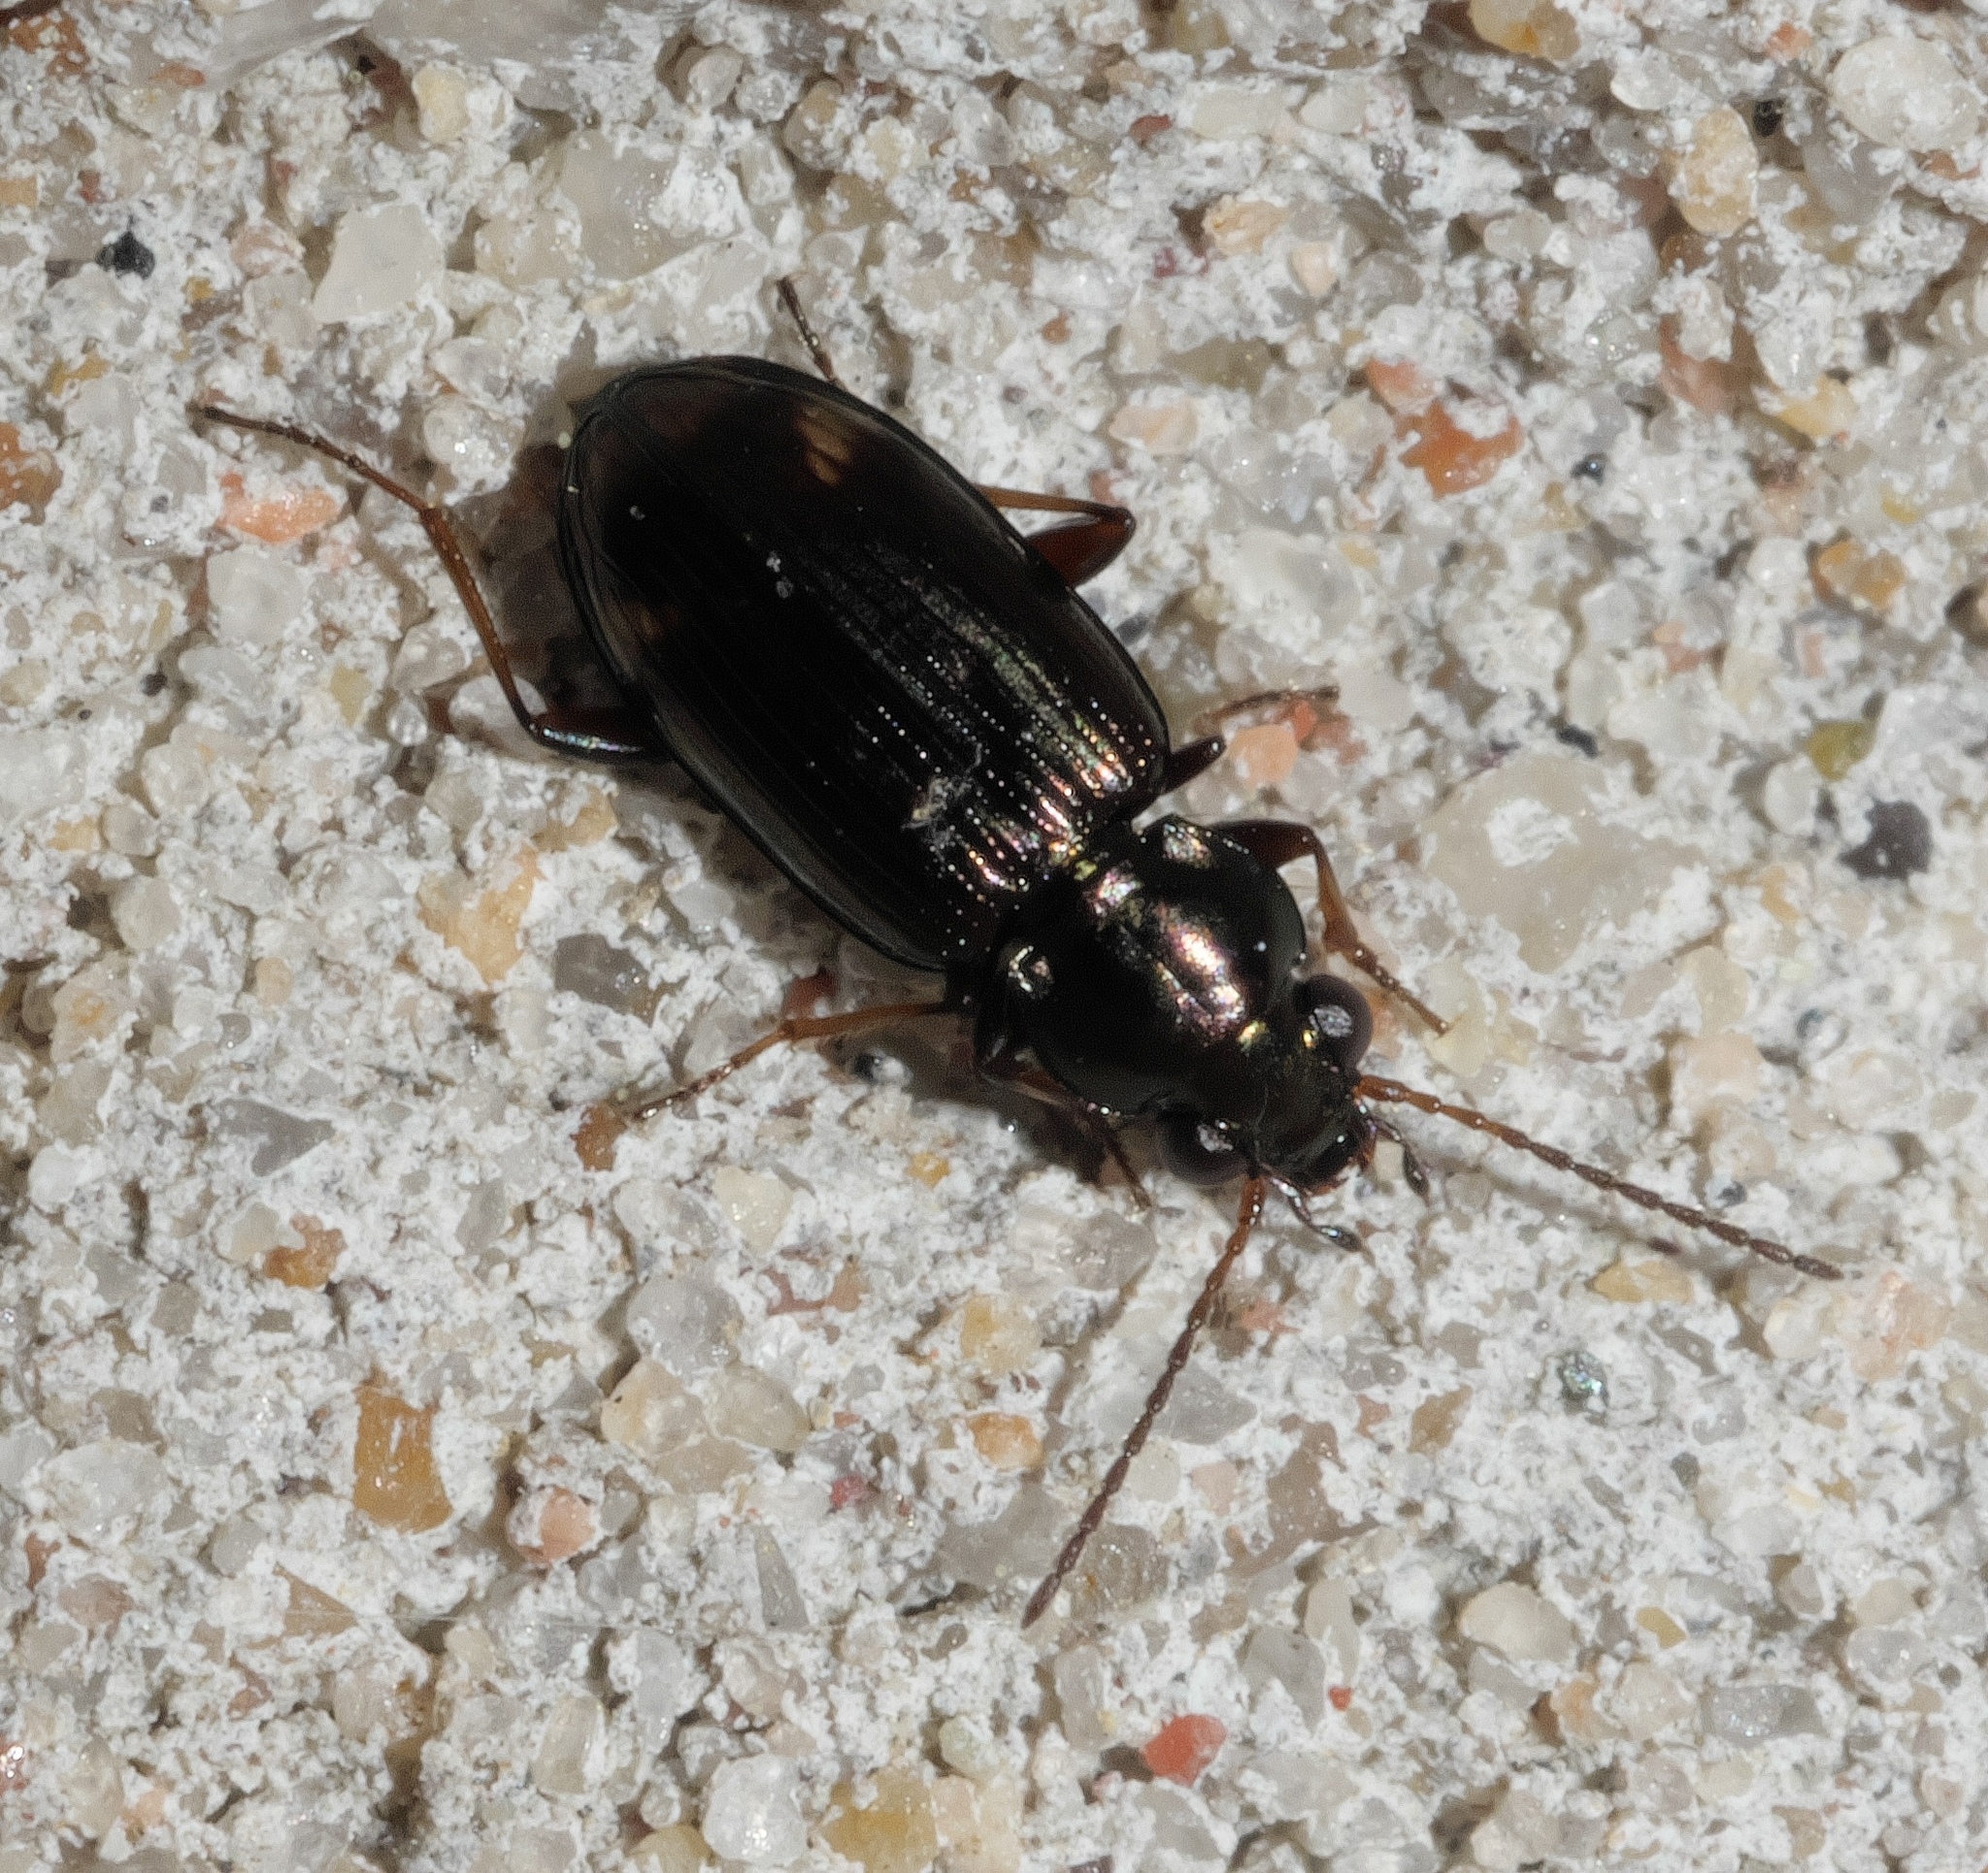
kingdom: Animalia
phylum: Arthropoda
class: Insecta
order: Coleoptera
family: Carabidae
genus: Bembidion
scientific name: Bembidion rapidum
